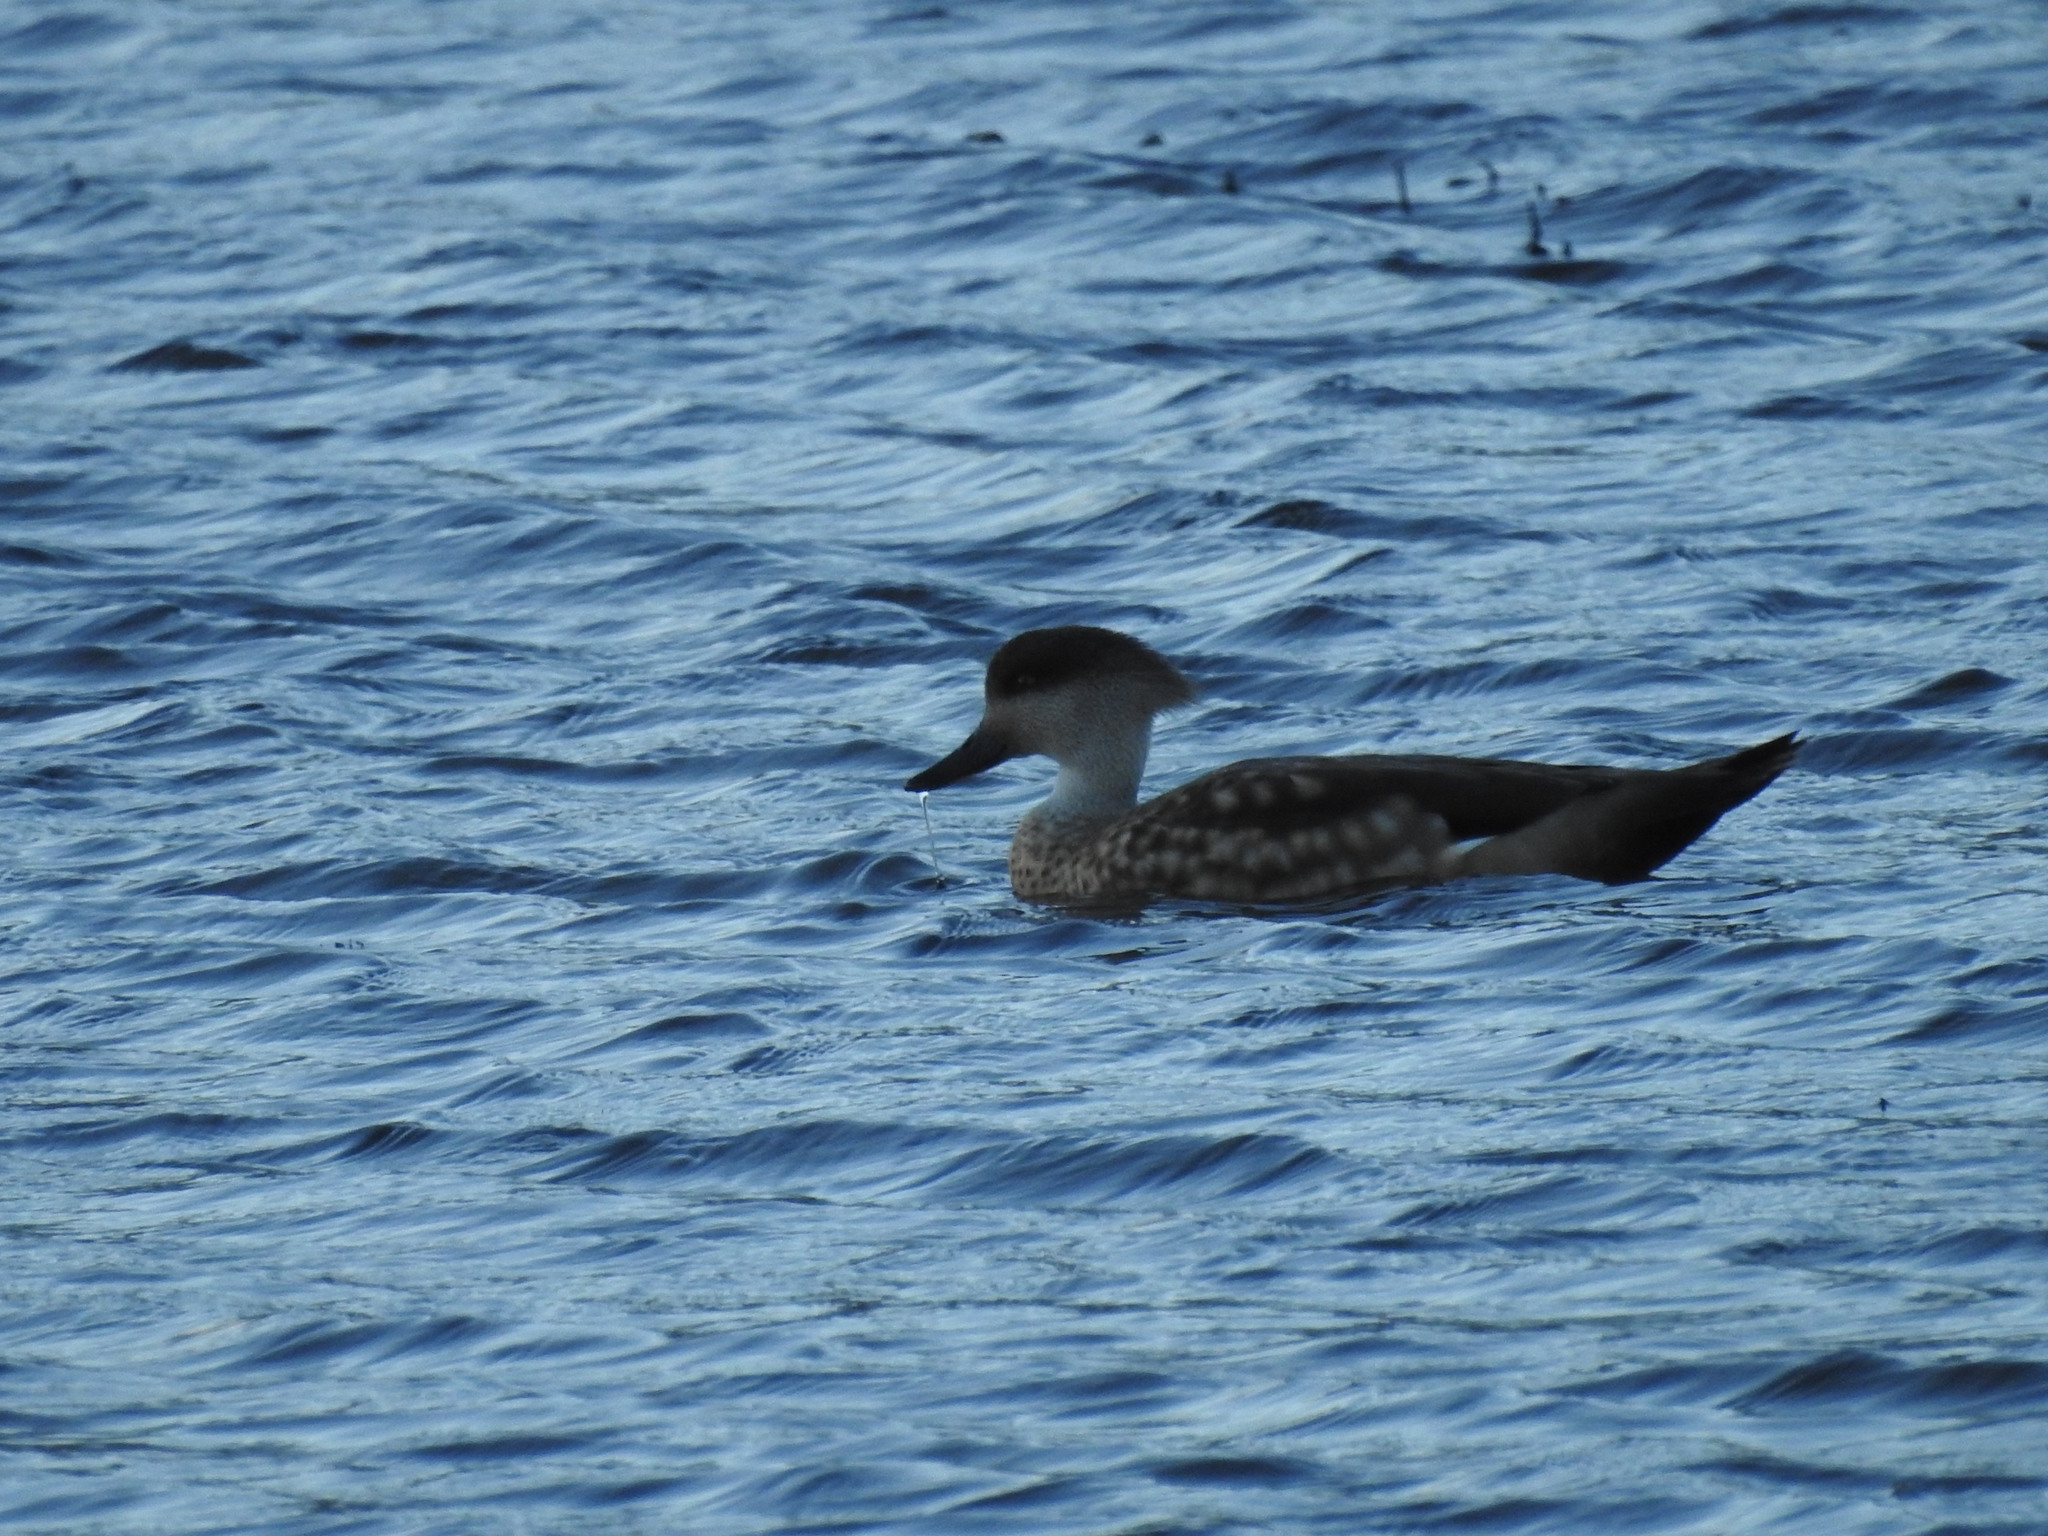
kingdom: Animalia
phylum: Chordata
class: Aves
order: Anseriformes
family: Anatidae
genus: Lophonetta
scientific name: Lophonetta specularioides
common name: Crested duck
